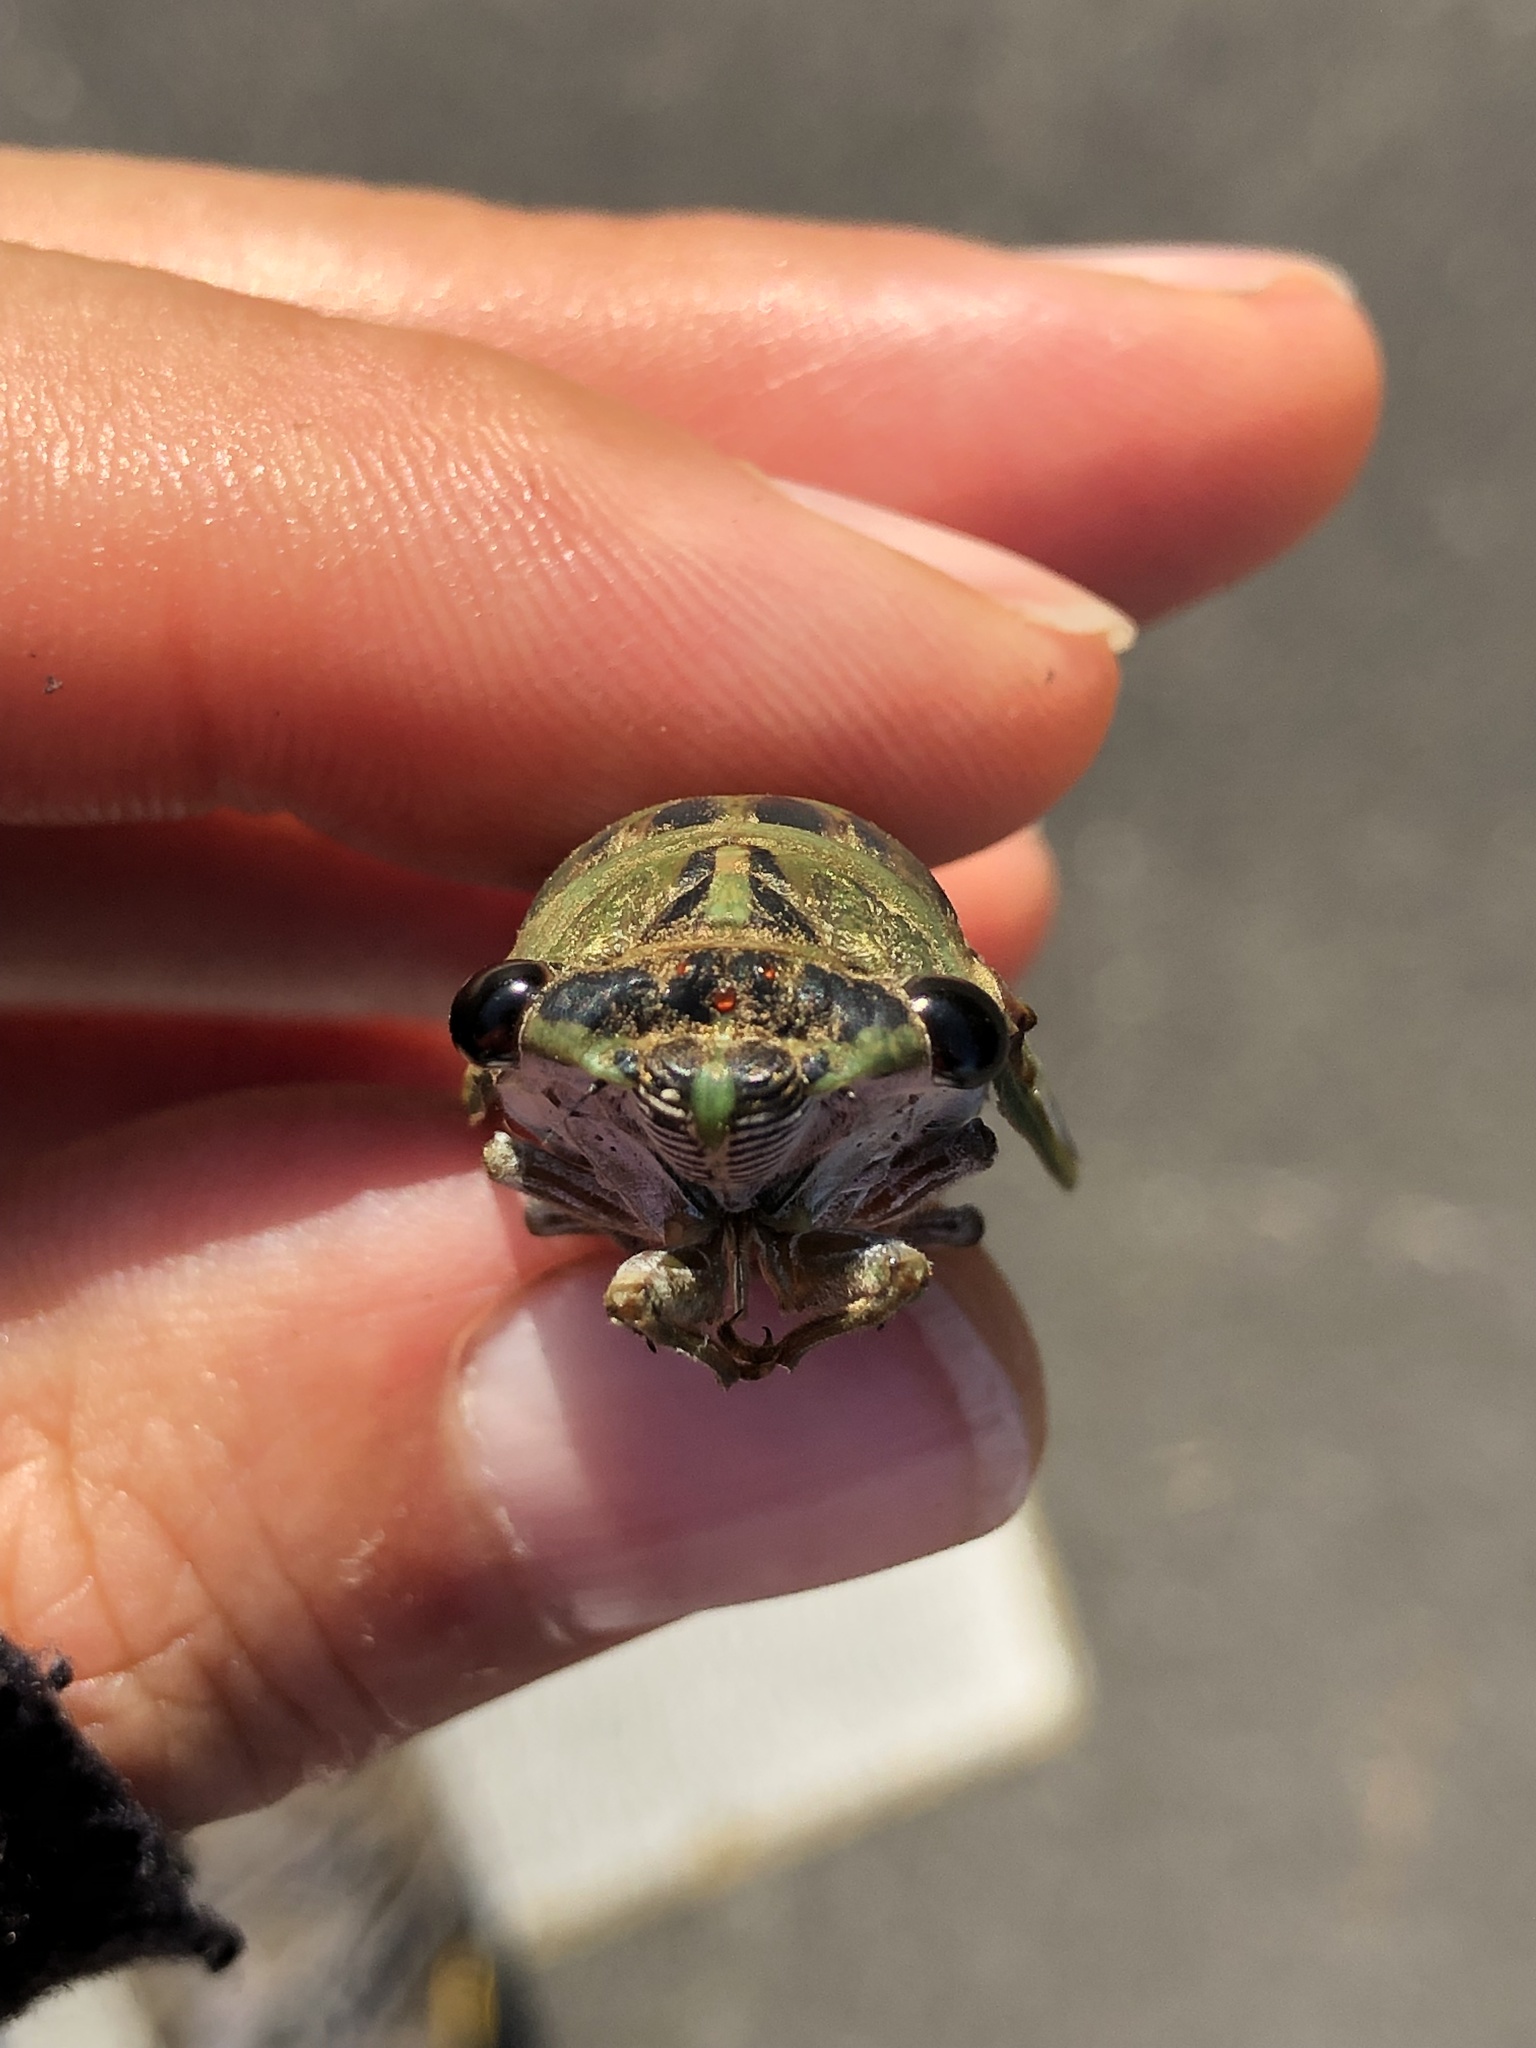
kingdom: Animalia
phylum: Arthropoda
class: Insecta
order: Hemiptera
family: Cicadidae
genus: Neotibicen
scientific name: Neotibicen pruinosus
